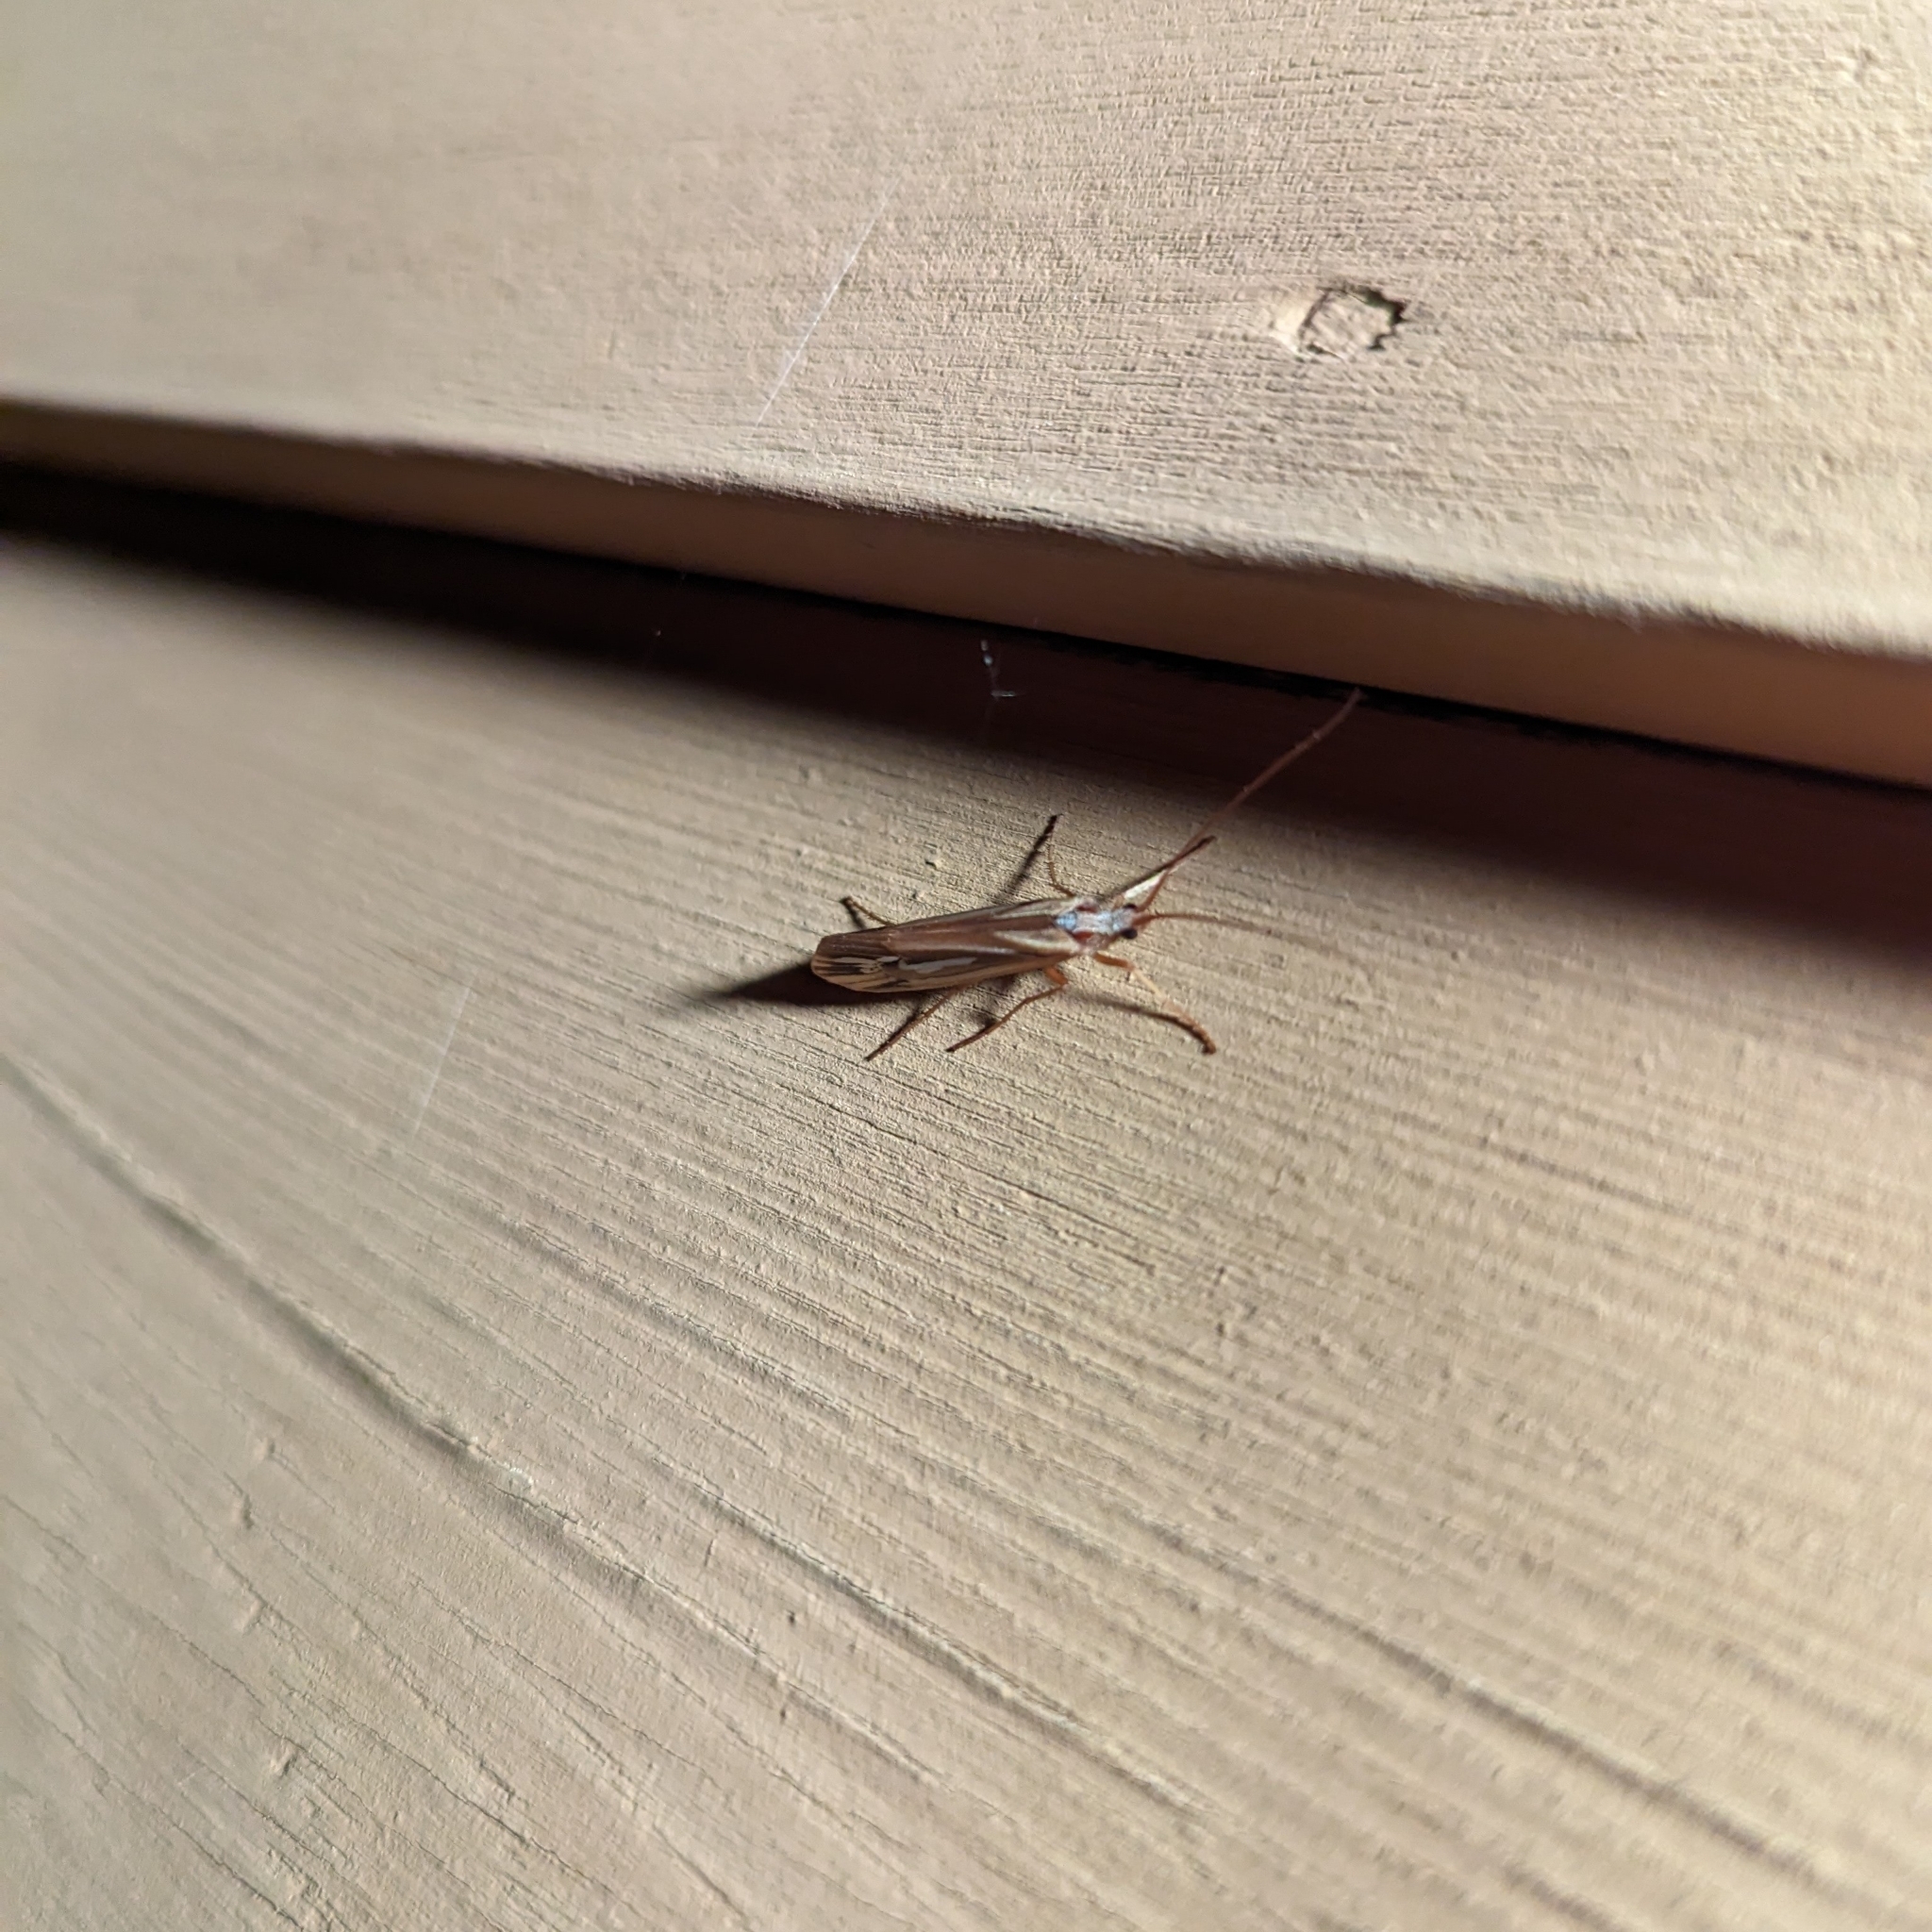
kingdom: Animalia
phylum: Arthropoda
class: Insecta
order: Trichoptera
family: Limnephilidae
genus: Limnephilus
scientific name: Limnephilus ornatus
